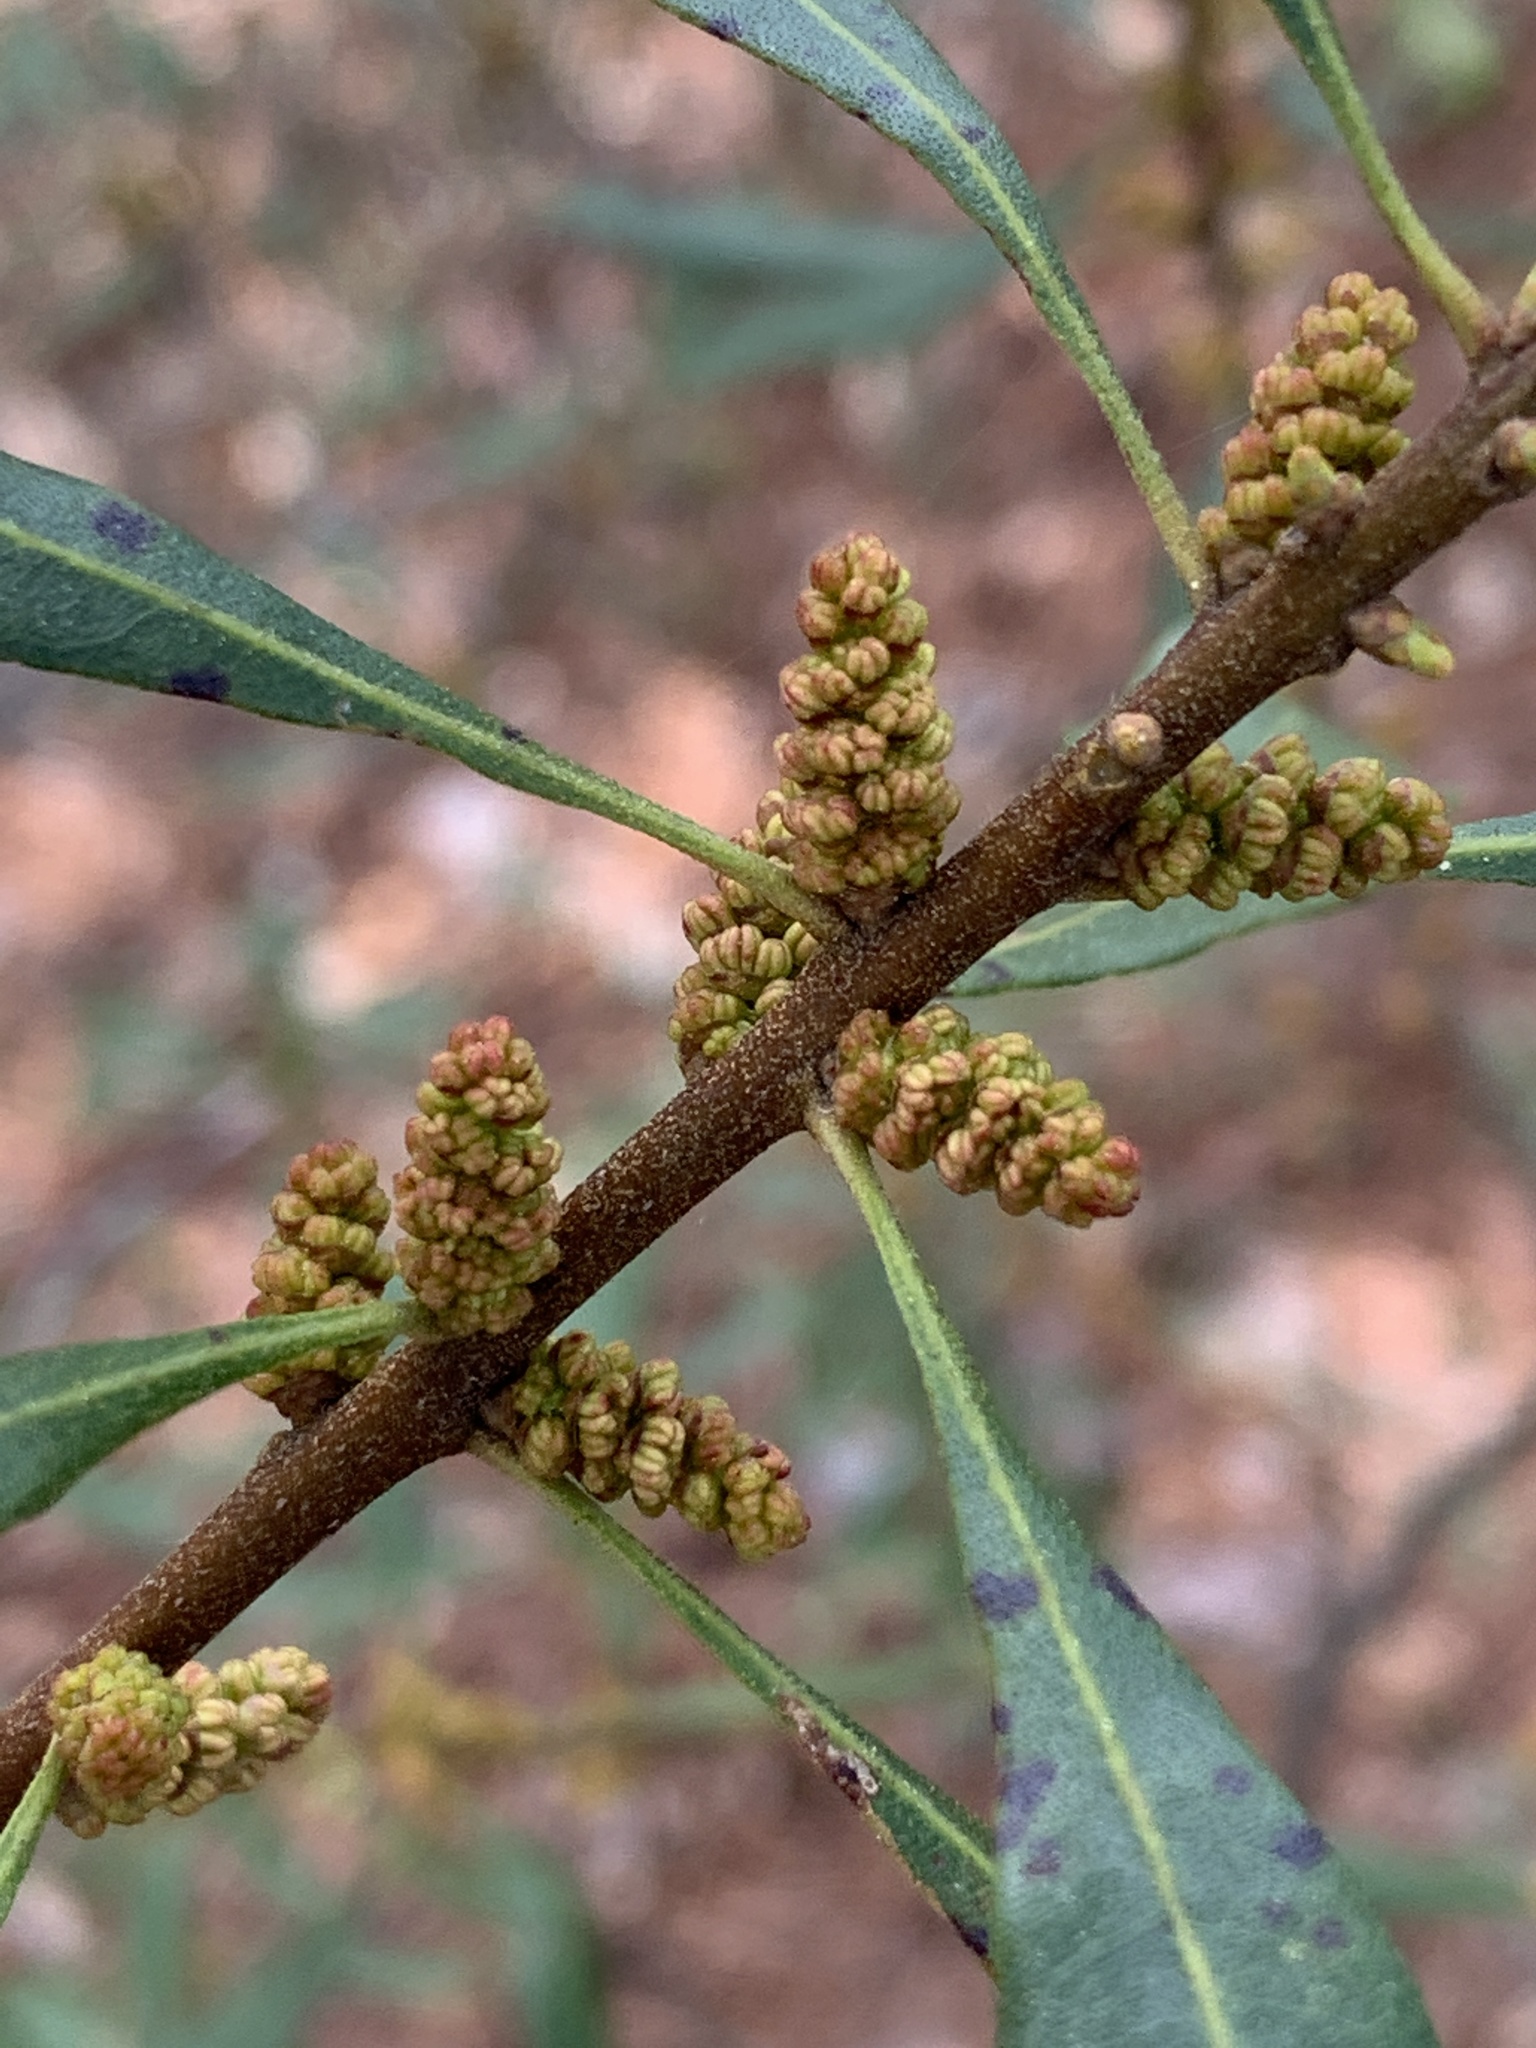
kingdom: Plantae
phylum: Tracheophyta
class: Magnoliopsida
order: Fagales
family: Myricaceae
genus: Morella
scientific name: Morella cerifera
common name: Wax myrtle
